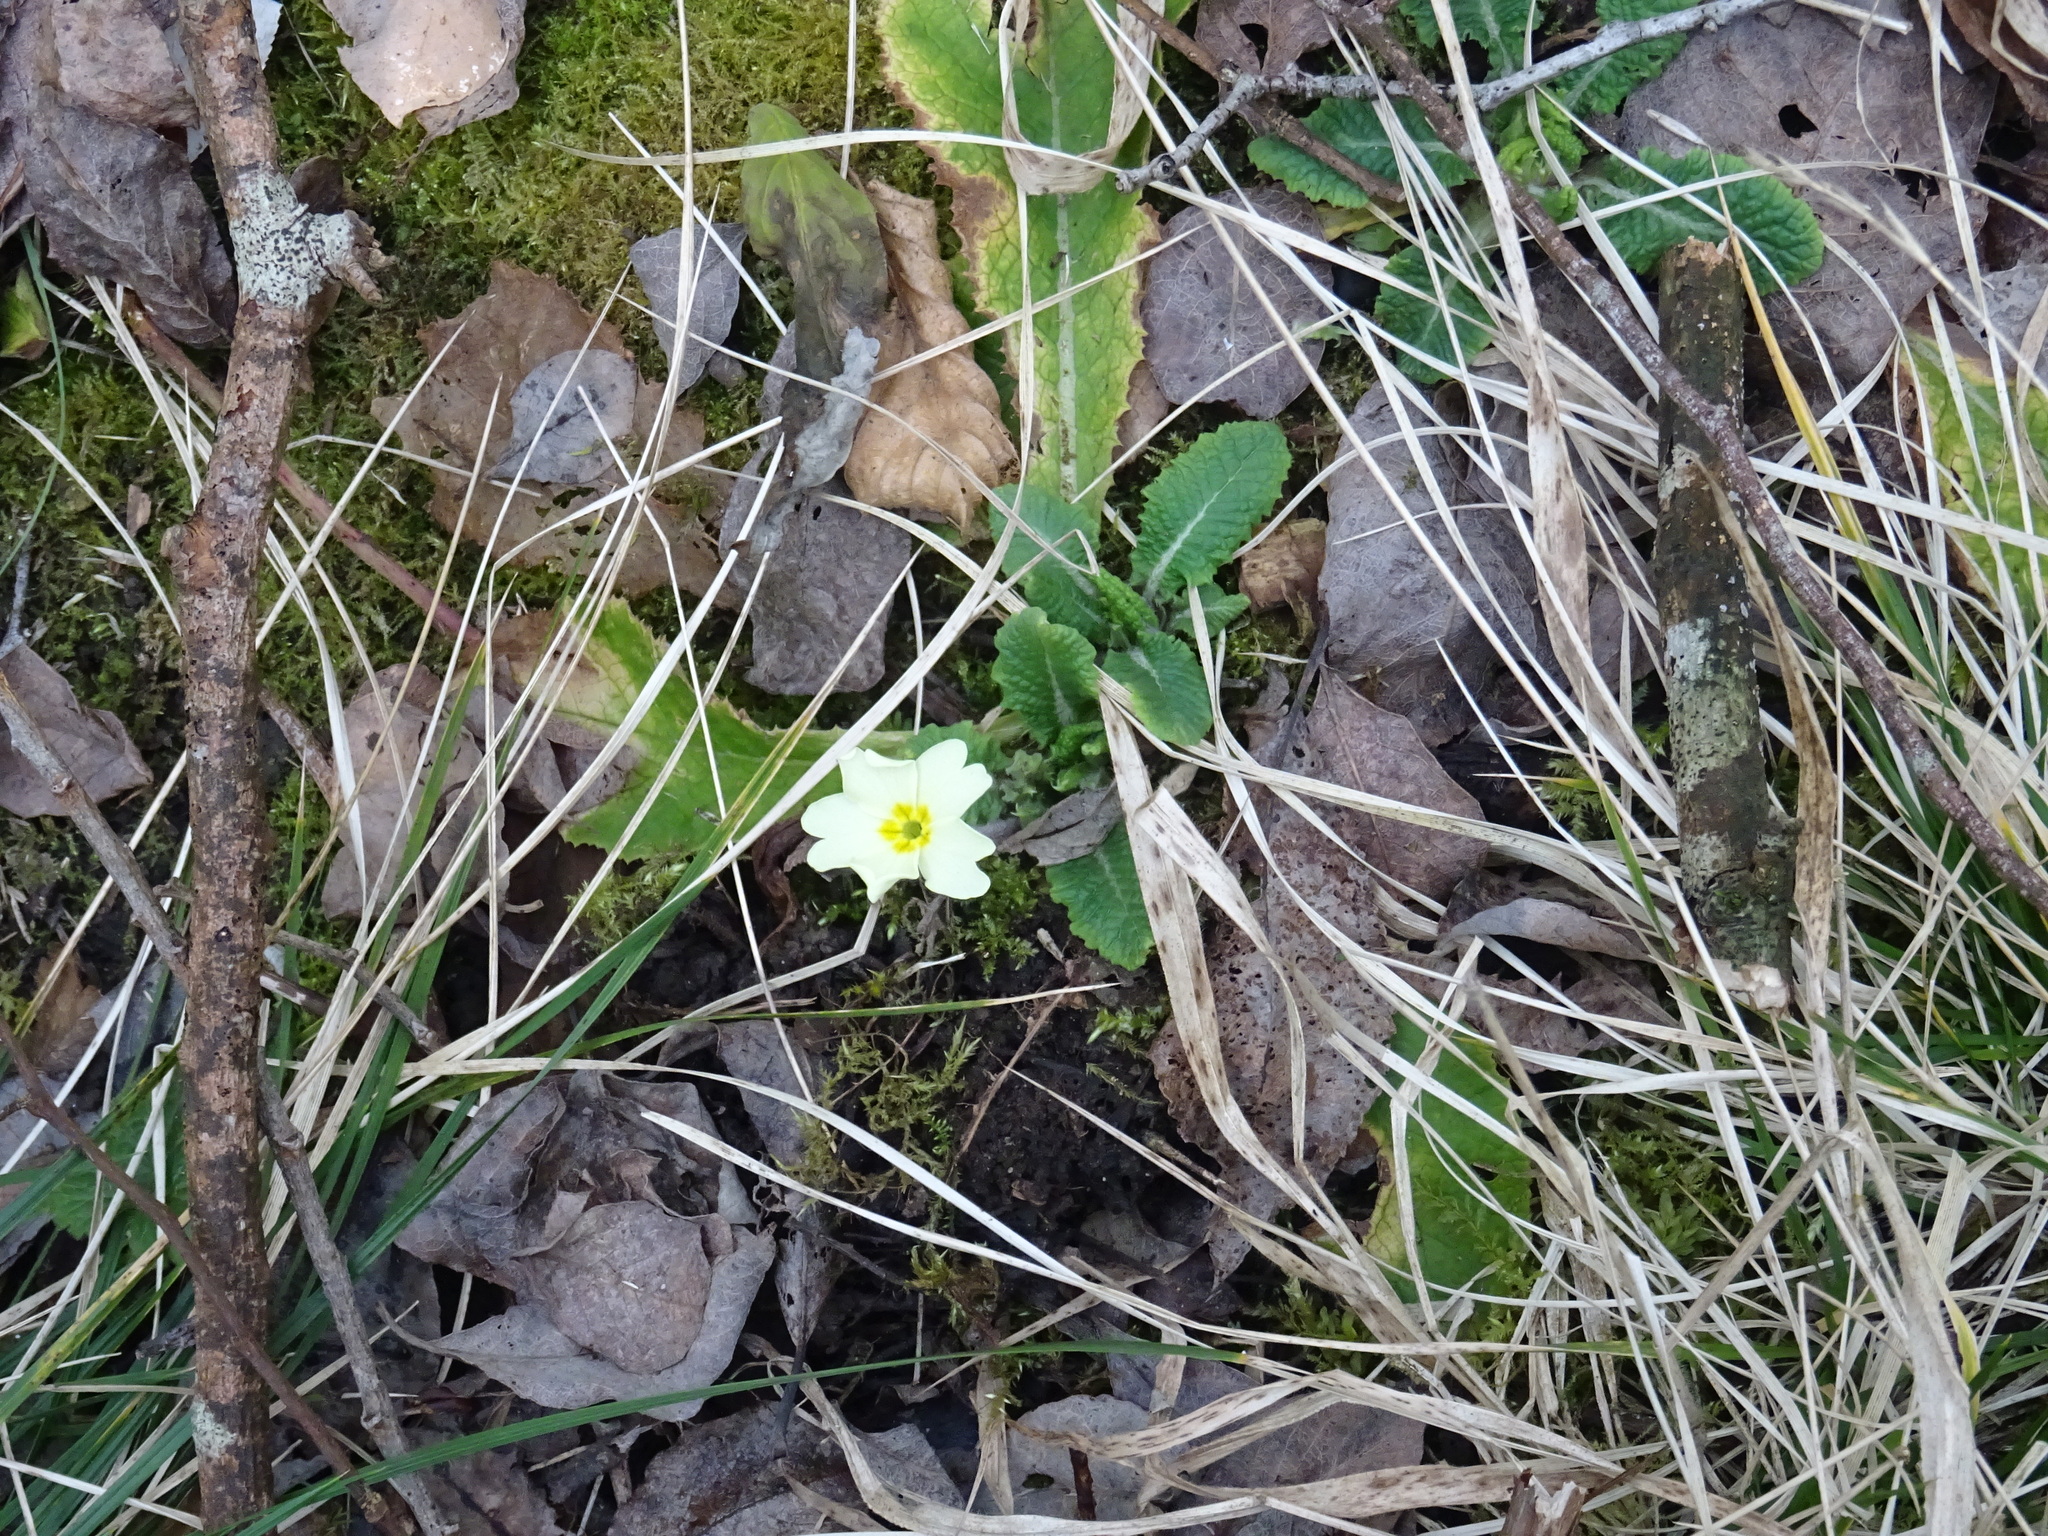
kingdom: Plantae
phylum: Tracheophyta
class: Magnoliopsida
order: Ericales
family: Primulaceae
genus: Primula
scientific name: Primula vulgaris
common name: Primrose
